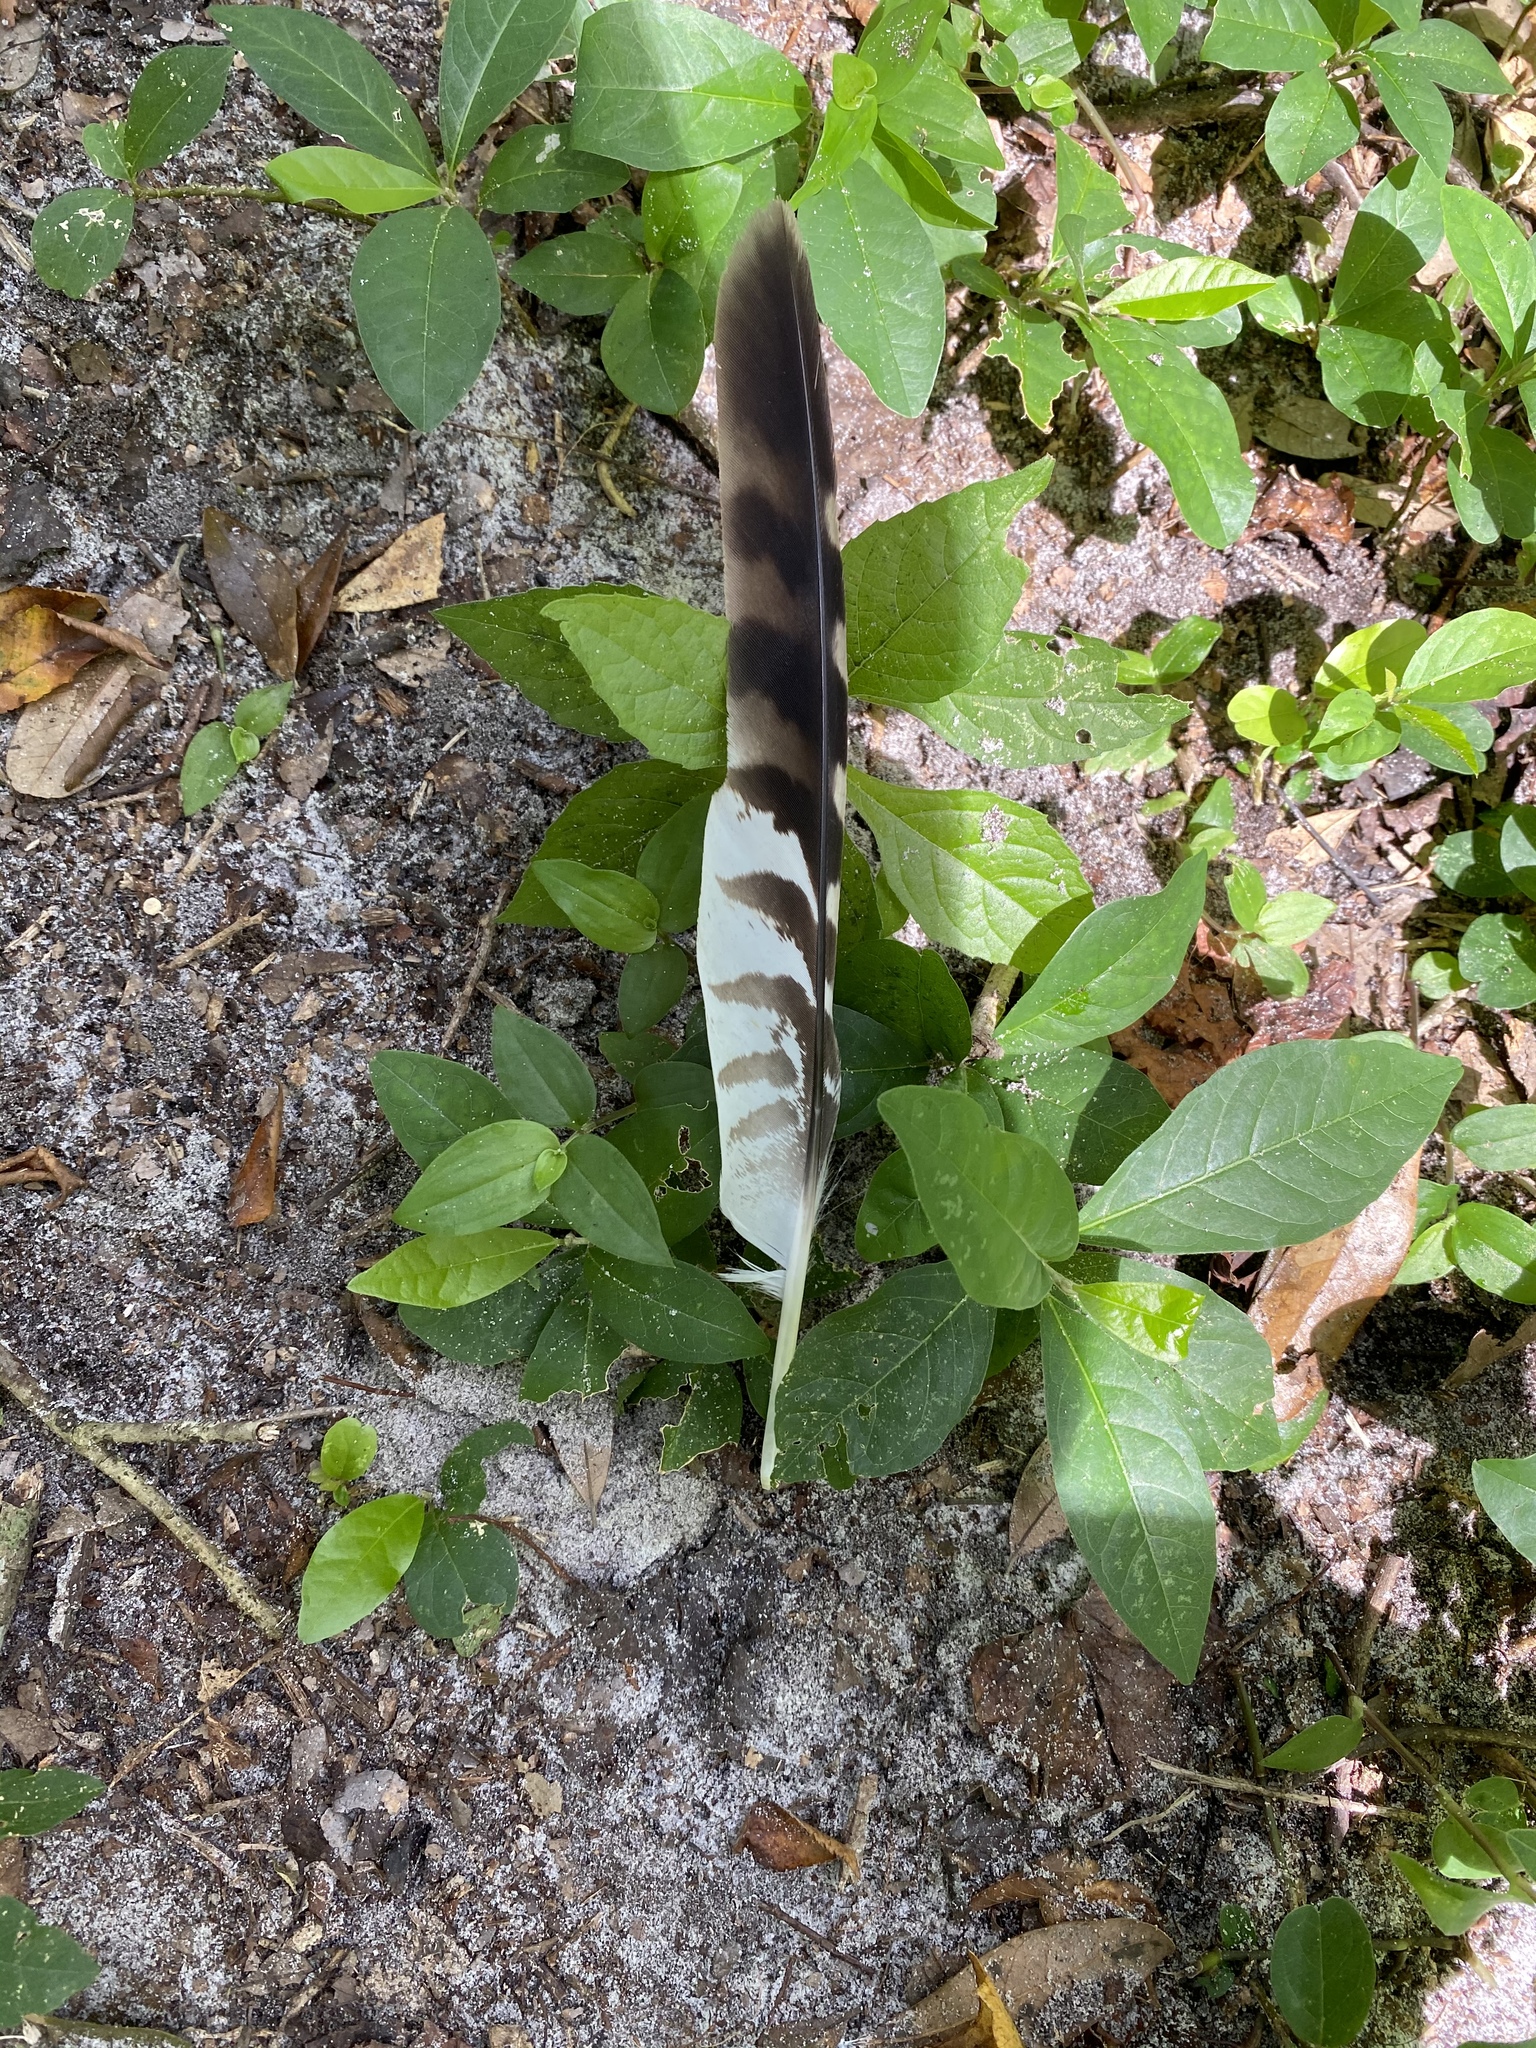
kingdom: Animalia
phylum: Chordata
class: Aves
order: Accipitriformes
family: Accipitridae
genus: Buteo
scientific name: Buteo lineatus
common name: Red-shouldered hawk
